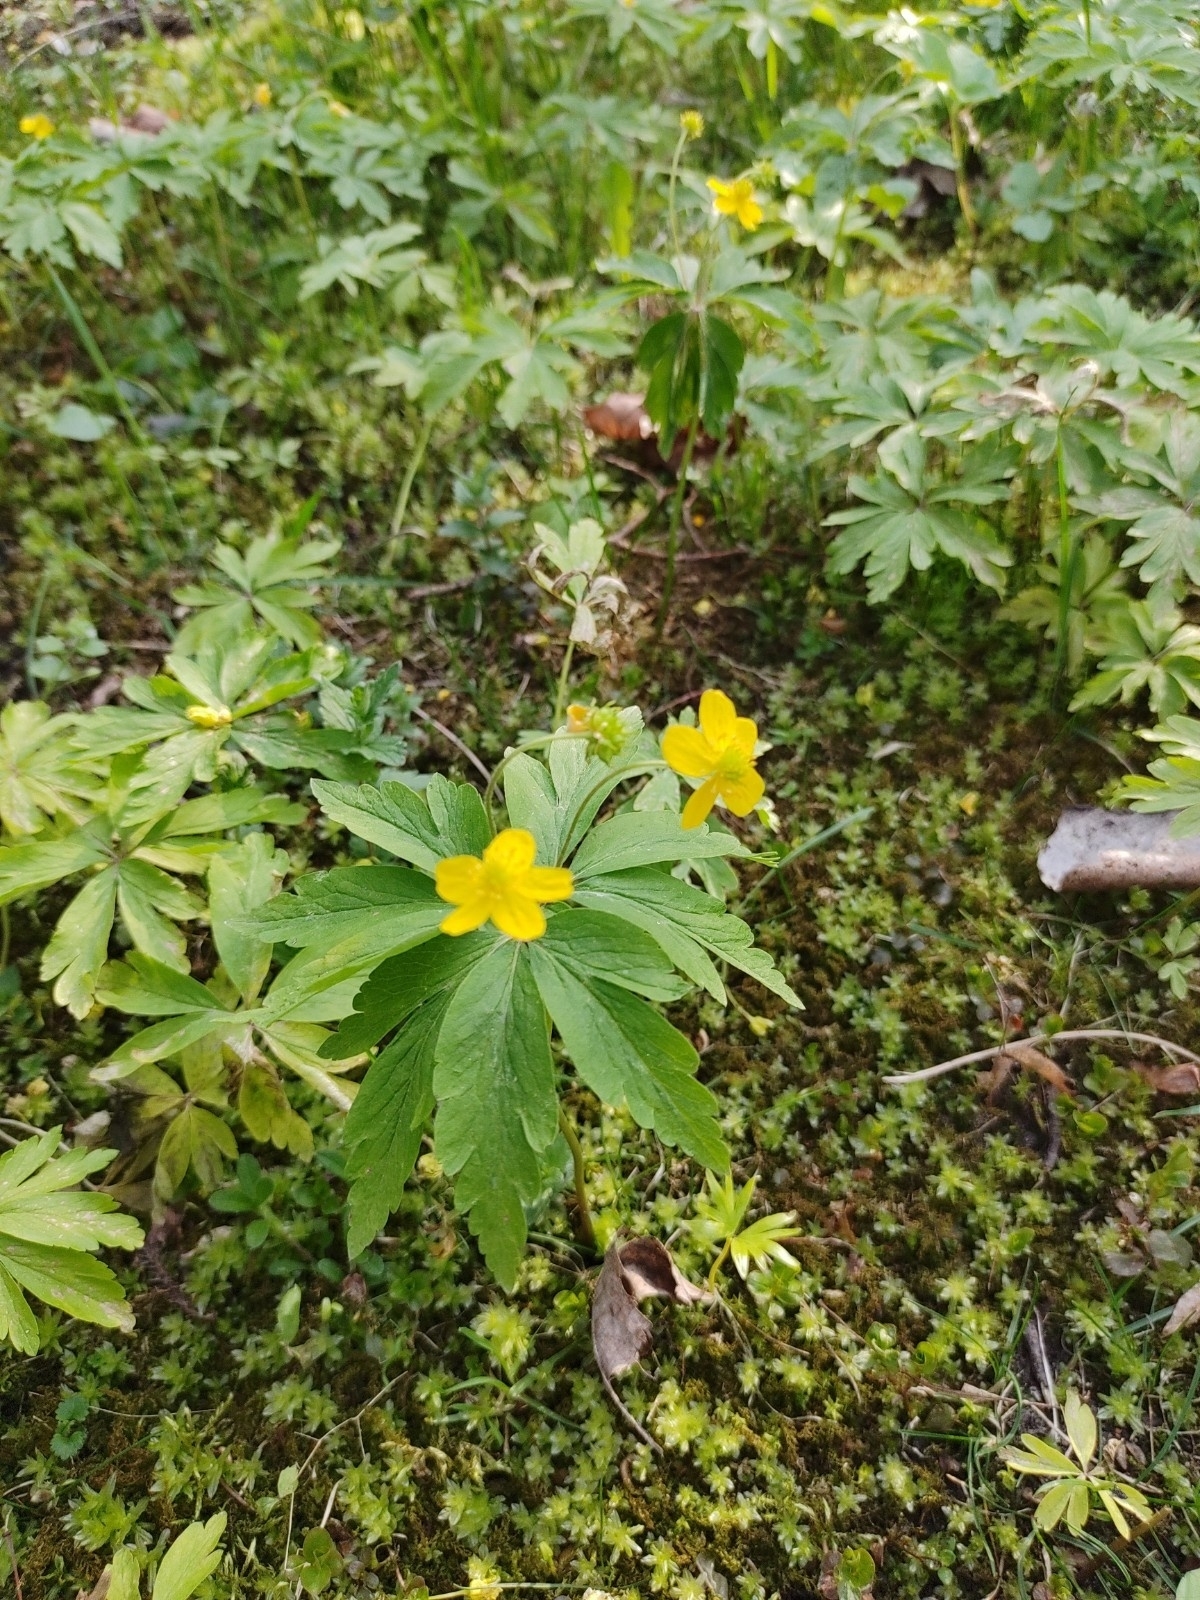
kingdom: Plantae
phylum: Tracheophyta
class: Magnoliopsida
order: Ranunculales
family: Ranunculaceae
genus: Anemone
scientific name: Anemone ranunculoides
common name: Yellow anemone
